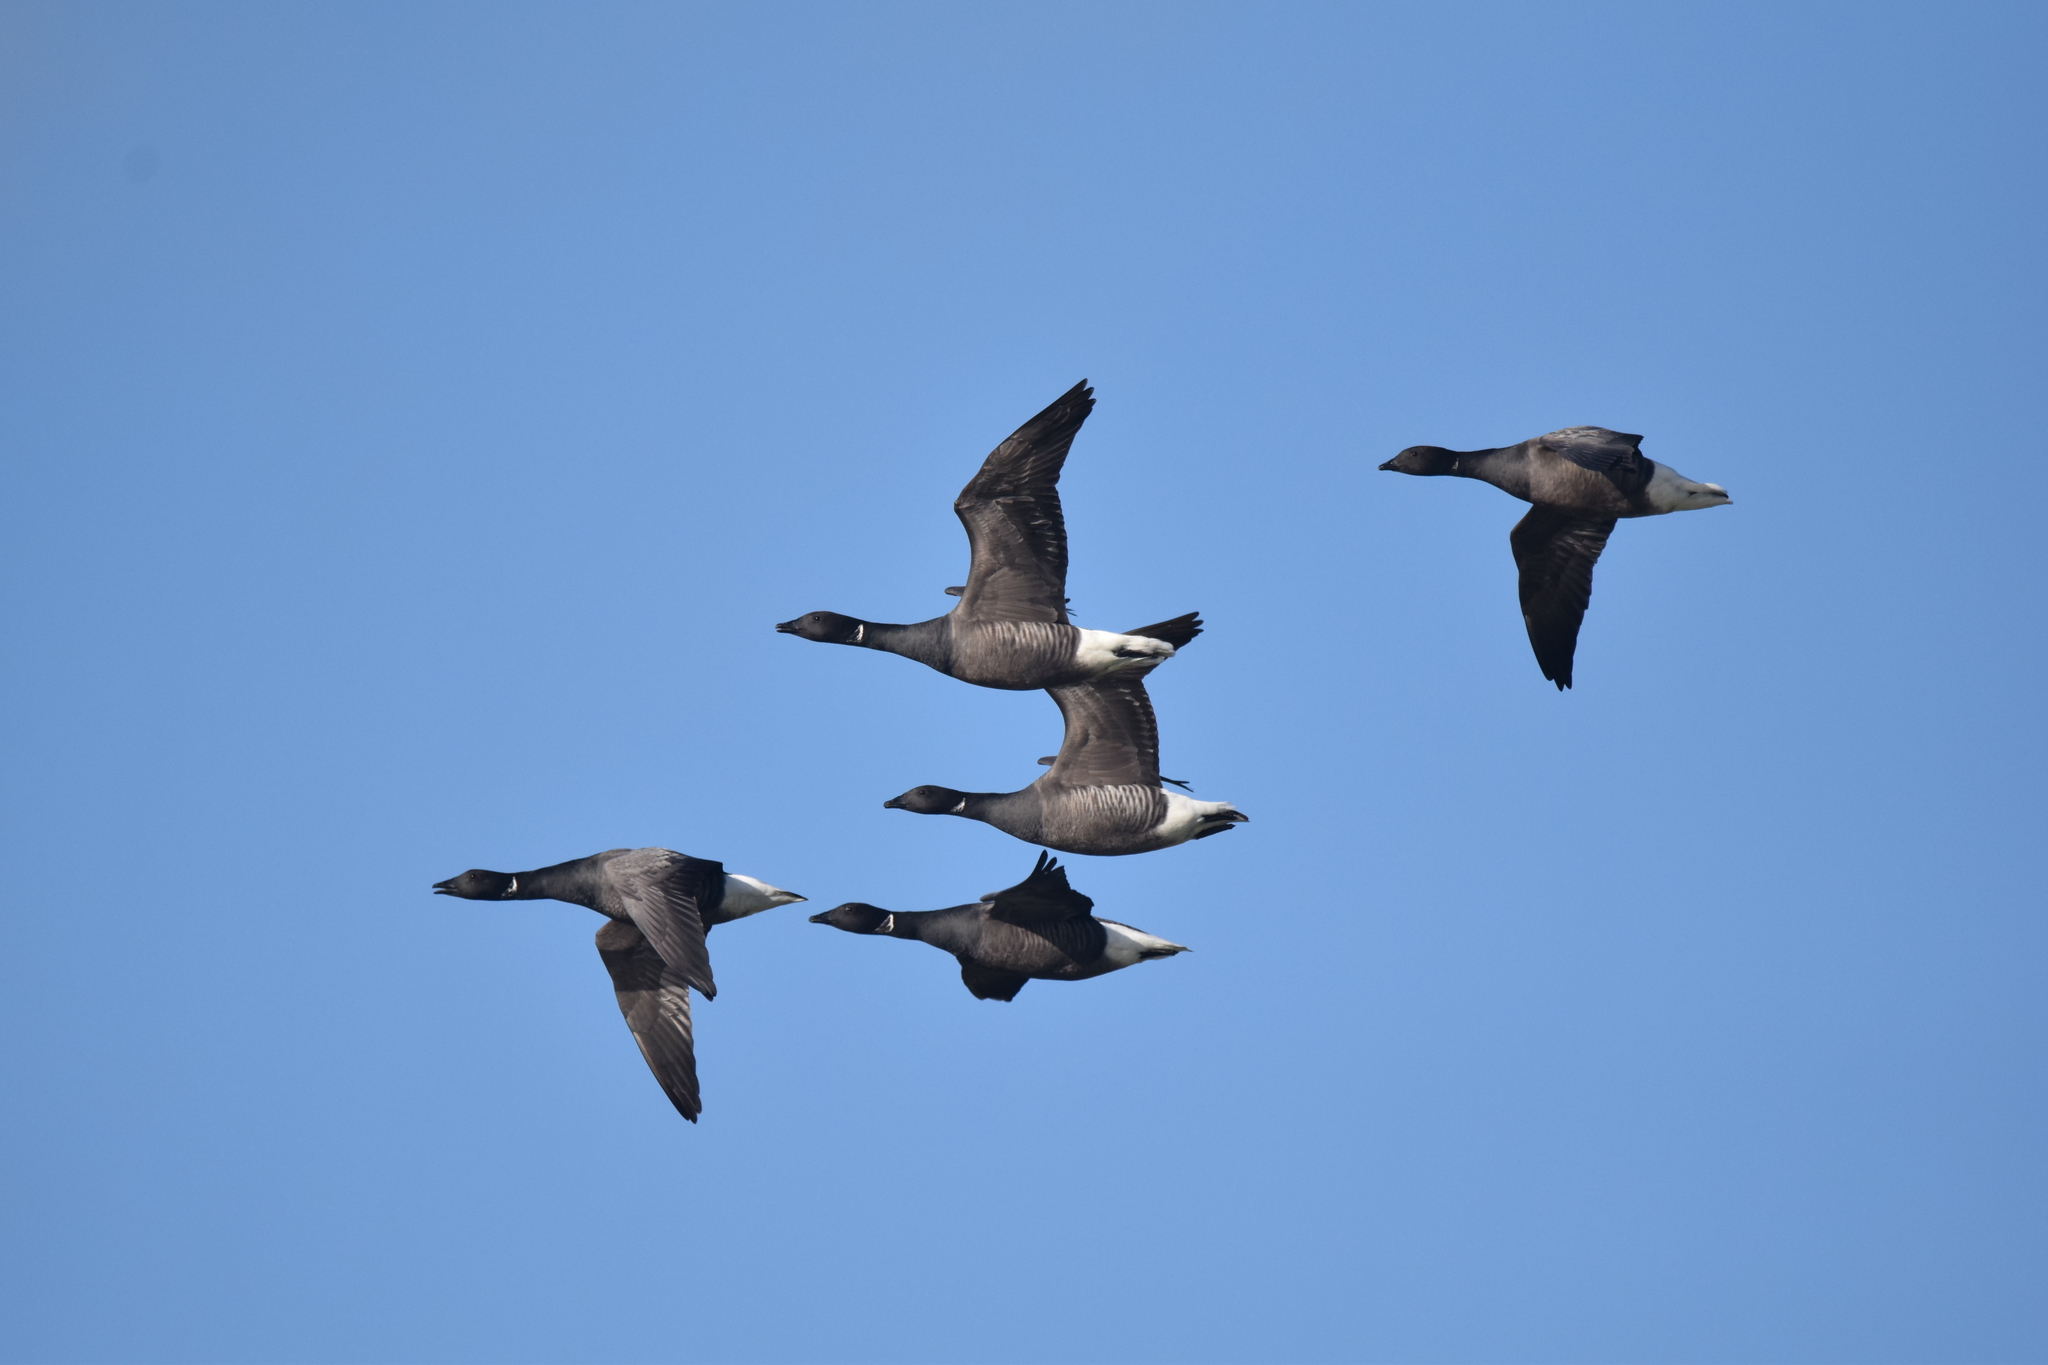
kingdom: Animalia
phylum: Chordata
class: Aves
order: Anseriformes
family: Anatidae
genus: Branta
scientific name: Branta bernicla
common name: Brant goose
